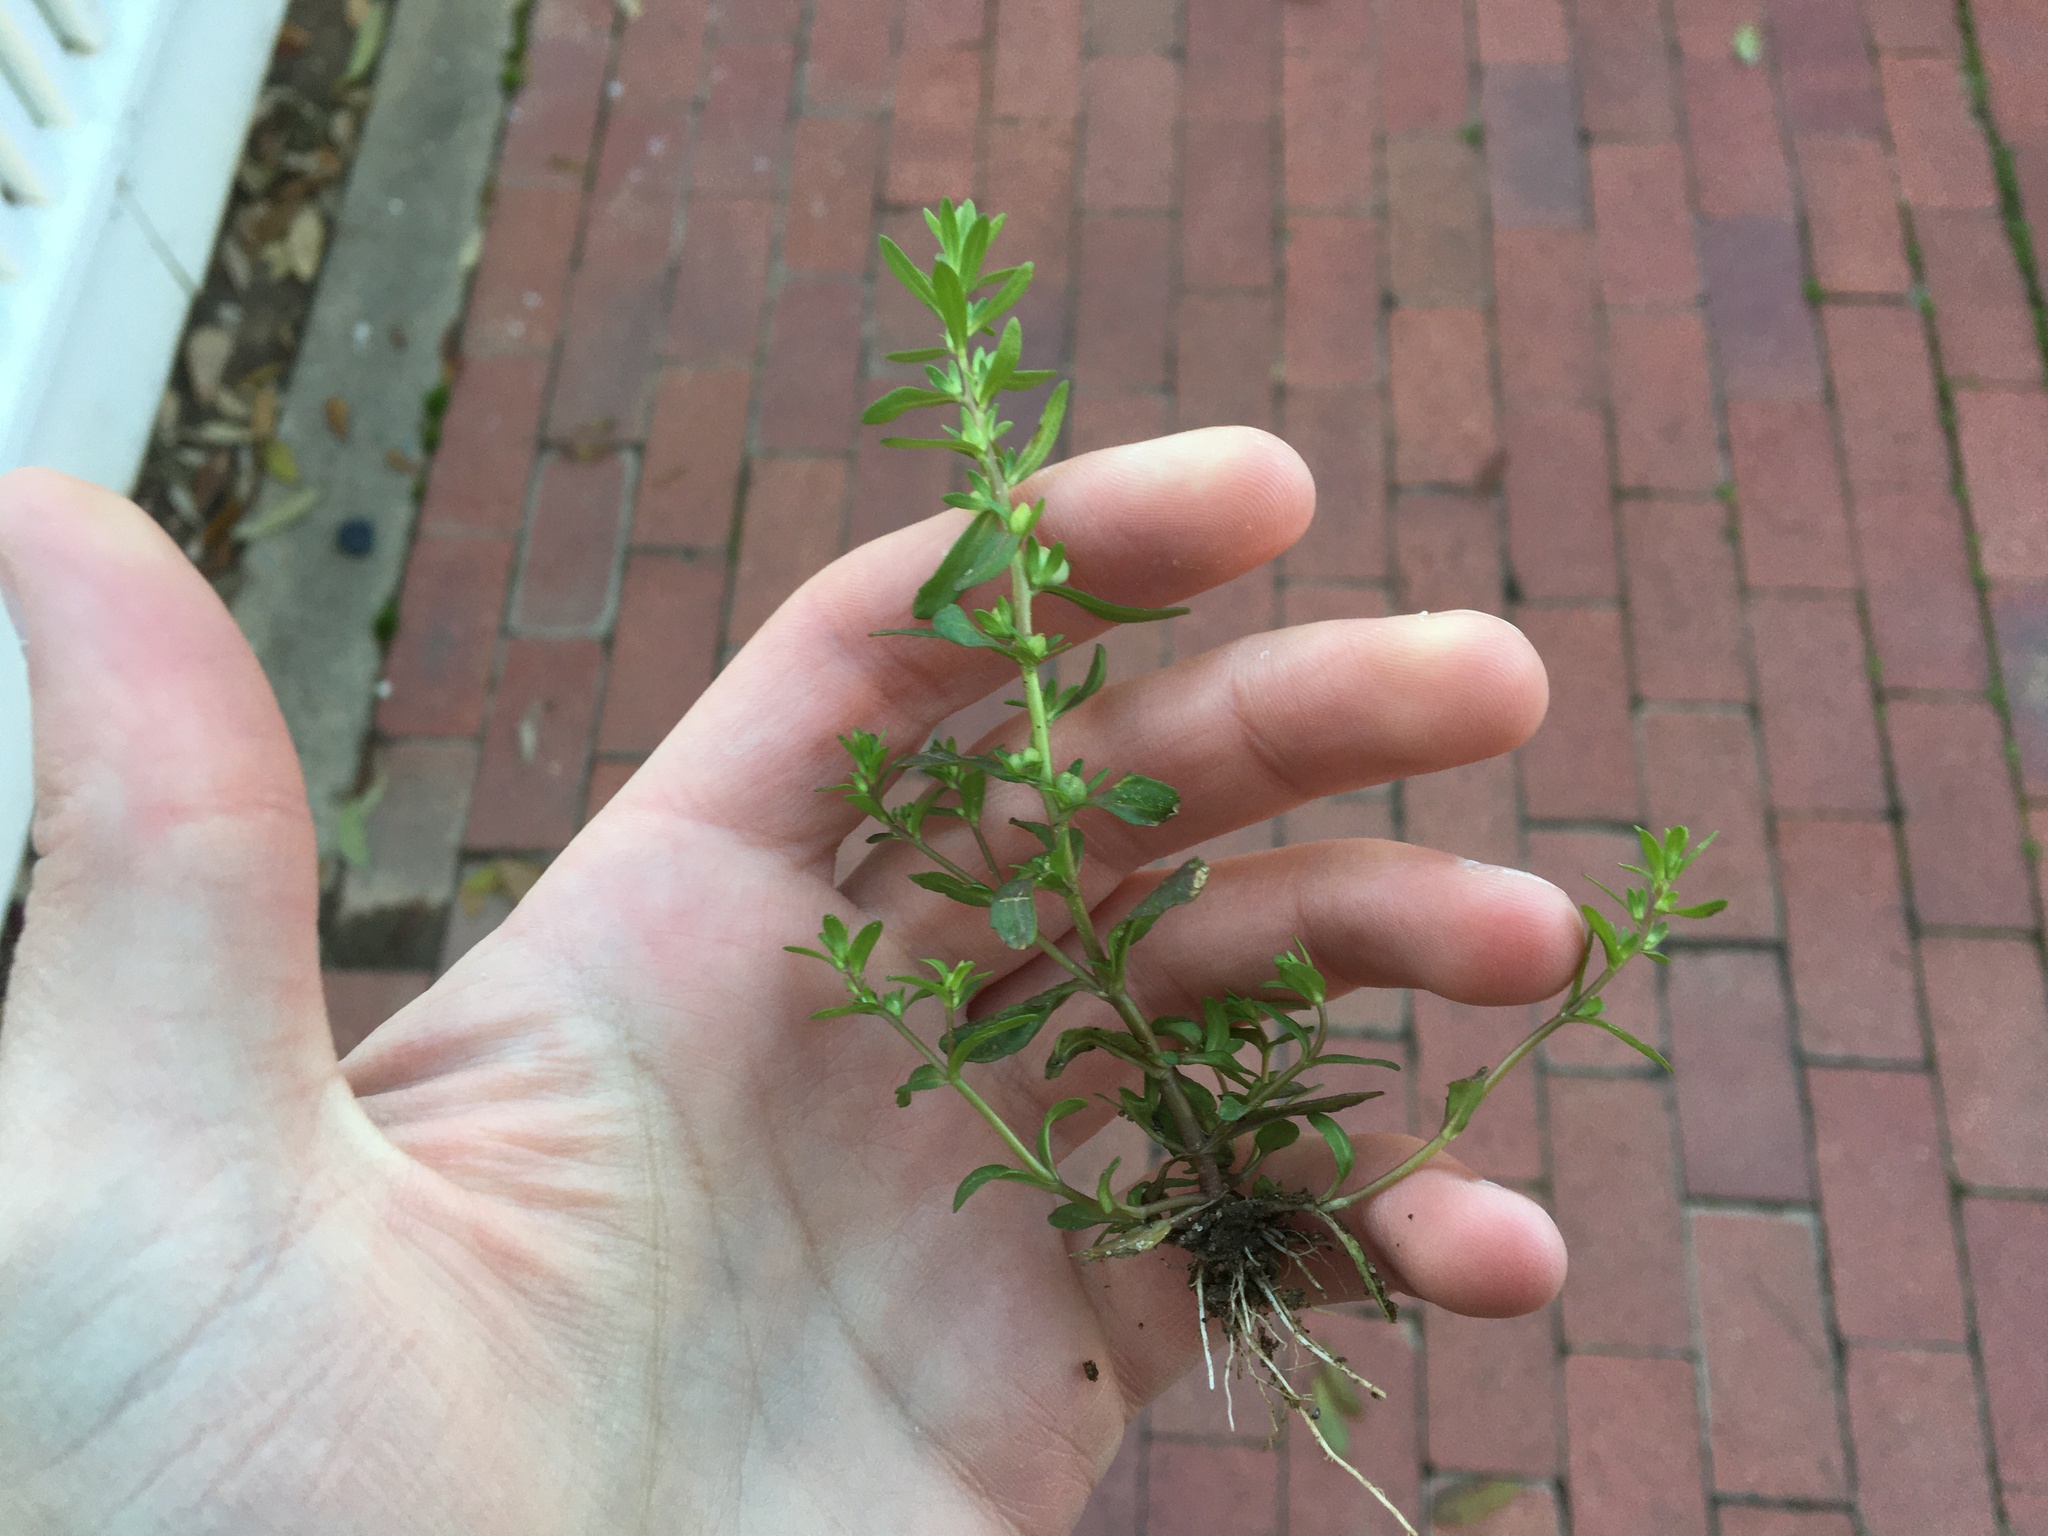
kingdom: Plantae
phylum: Tracheophyta
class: Magnoliopsida
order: Lamiales
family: Plantaginaceae
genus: Veronica
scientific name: Veronica peregrina
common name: Neckweed
